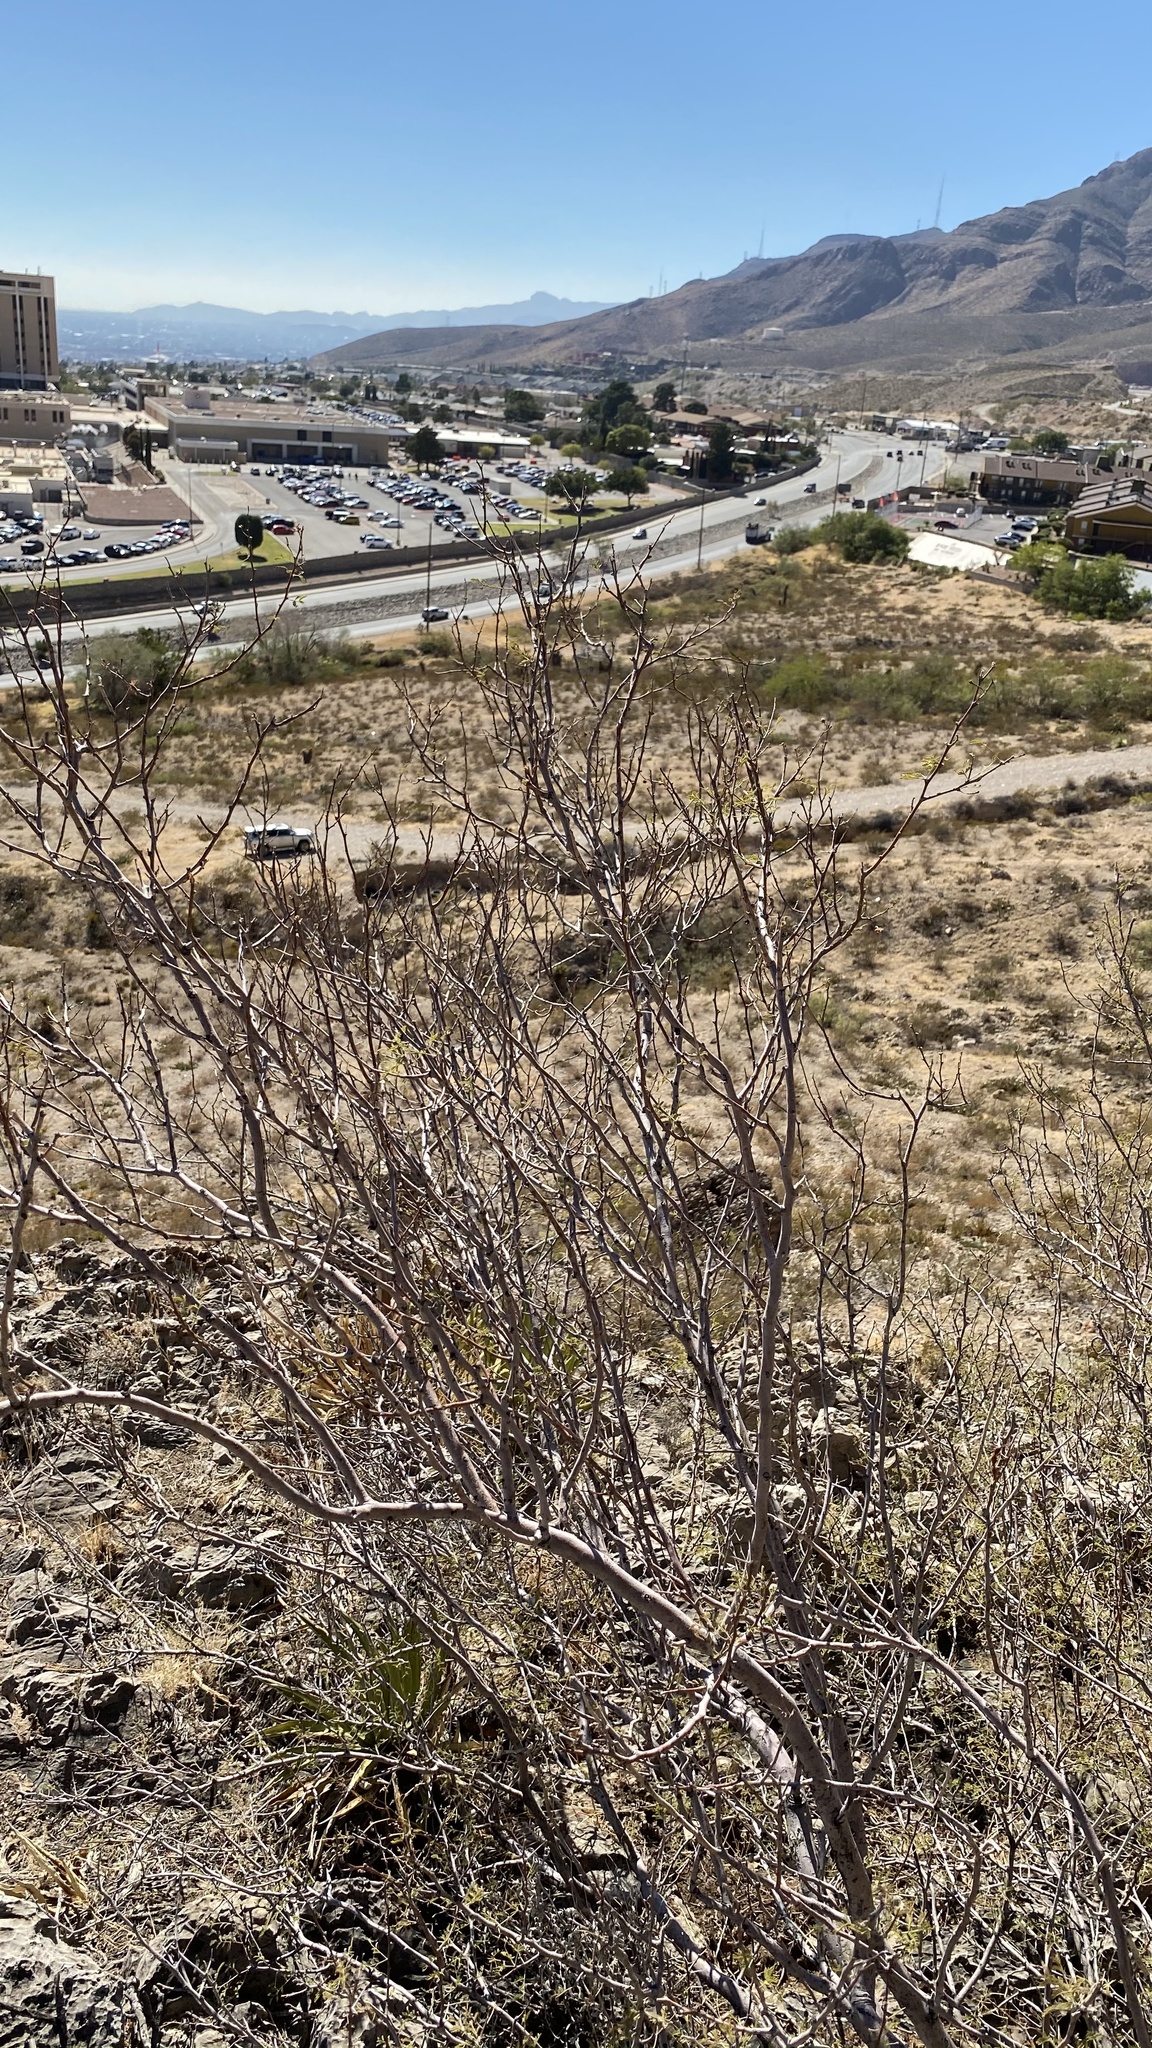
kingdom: Plantae
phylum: Tracheophyta
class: Magnoliopsida
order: Fabales
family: Fabaceae
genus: Vachellia
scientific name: Vachellia constricta
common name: Mescat acacia
